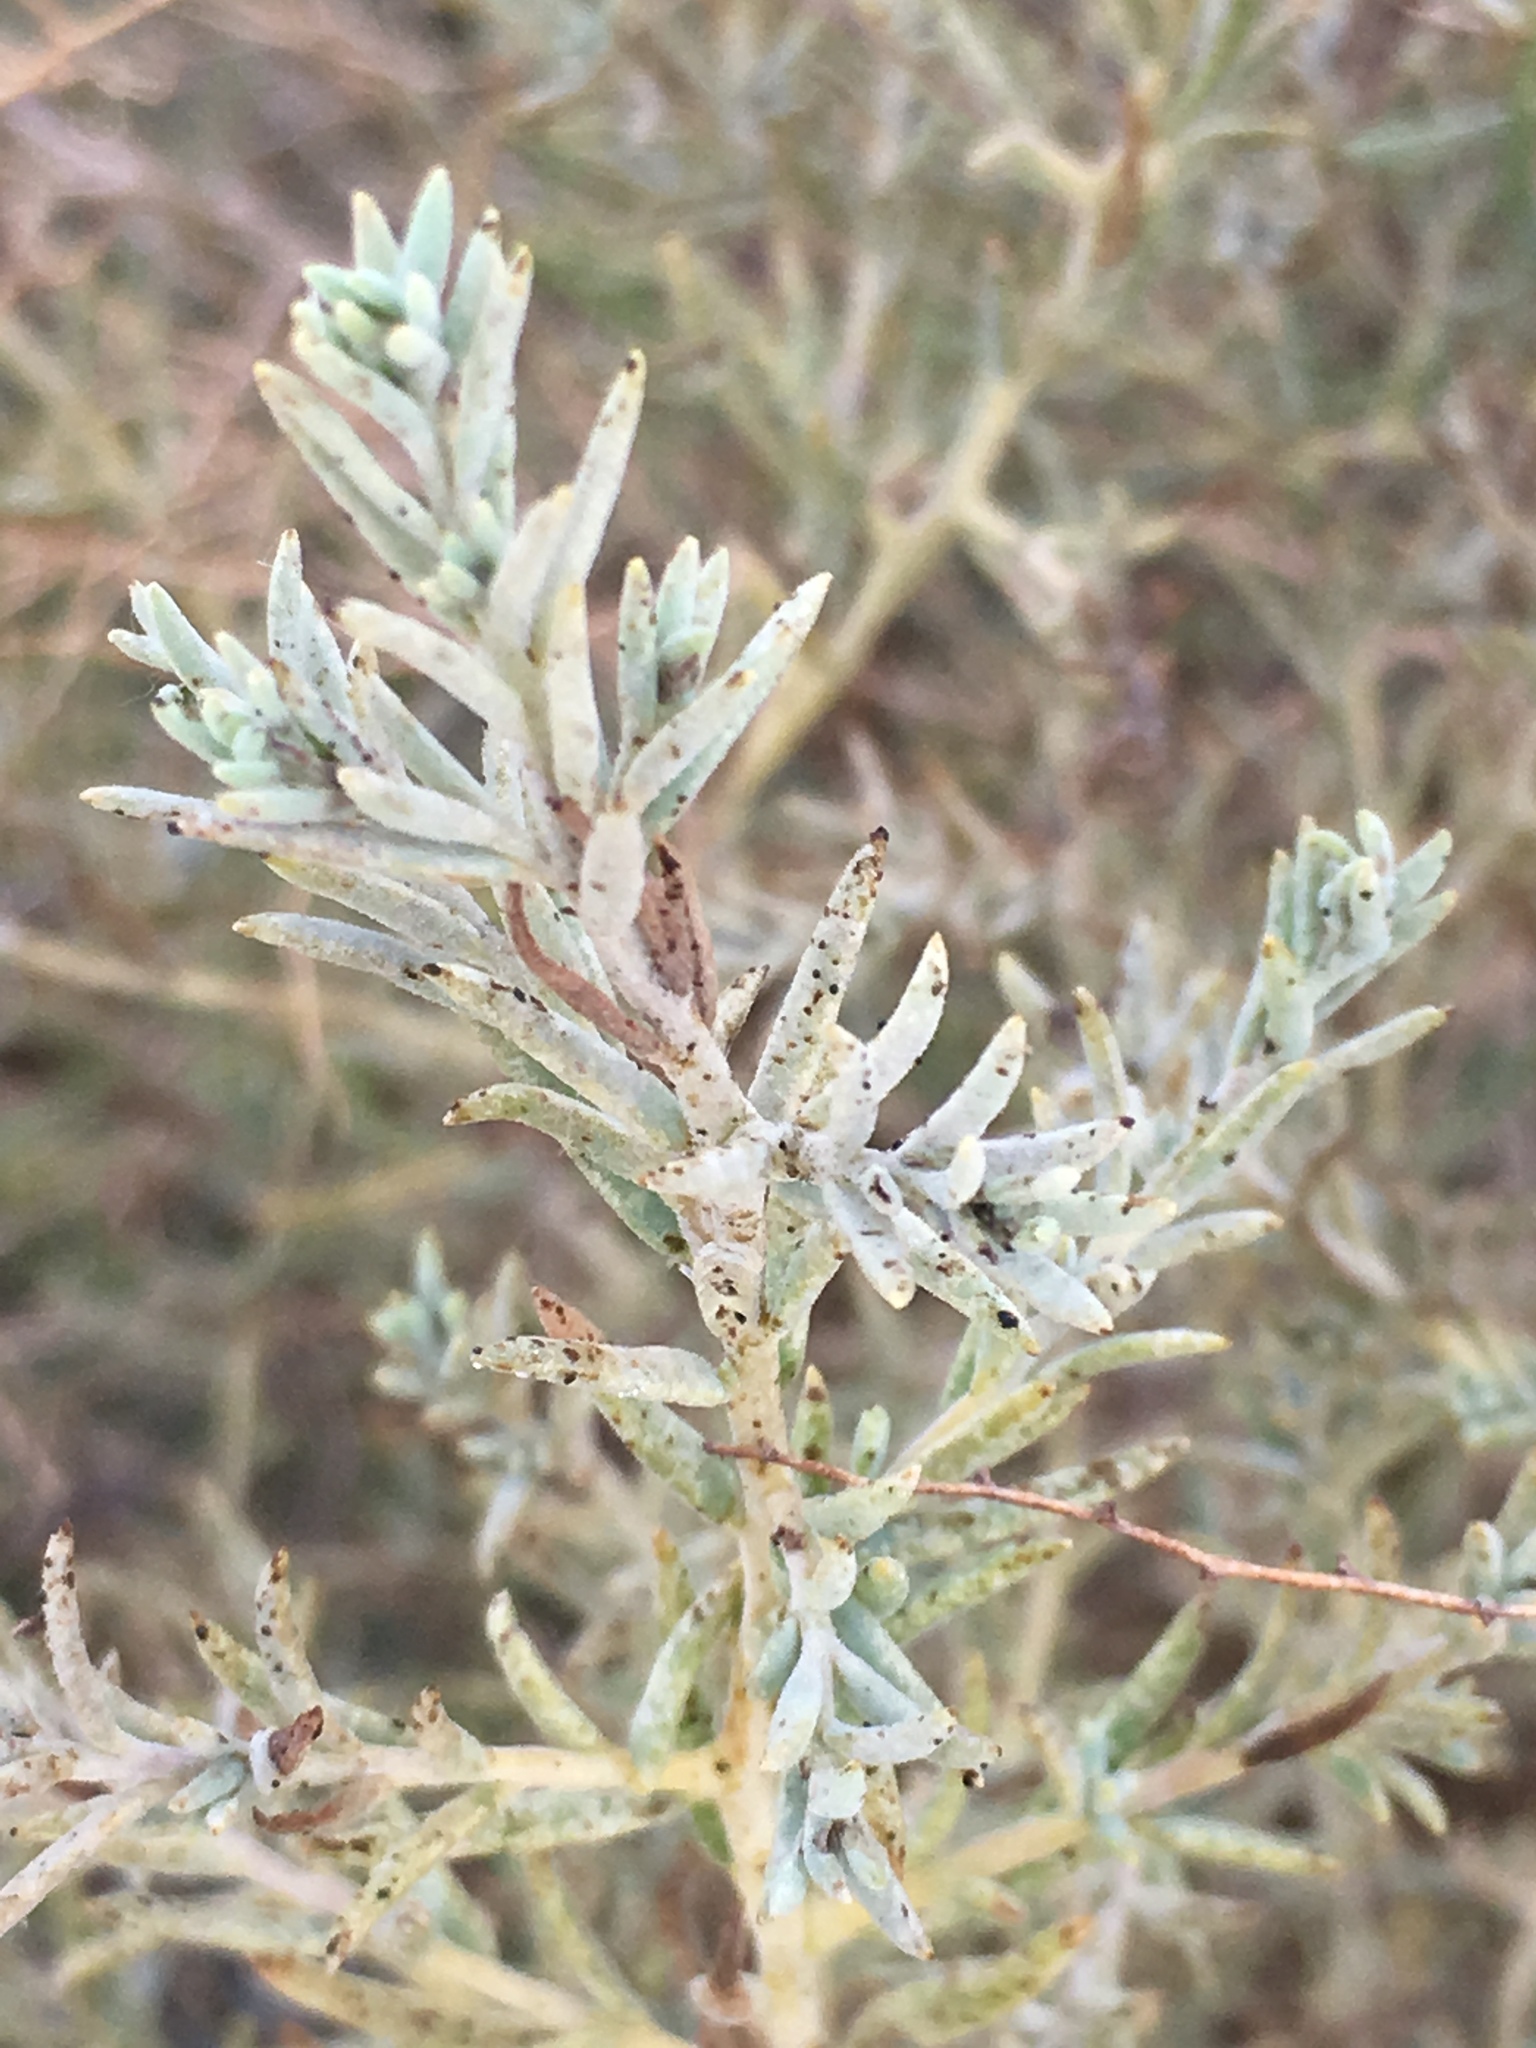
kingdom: Plantae
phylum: Tracheophyta
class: Magnoliopsida
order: Caryophyllales
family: Amaranthaceae
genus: Suaeda
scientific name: Suaeda nigra
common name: Bush seepweed
